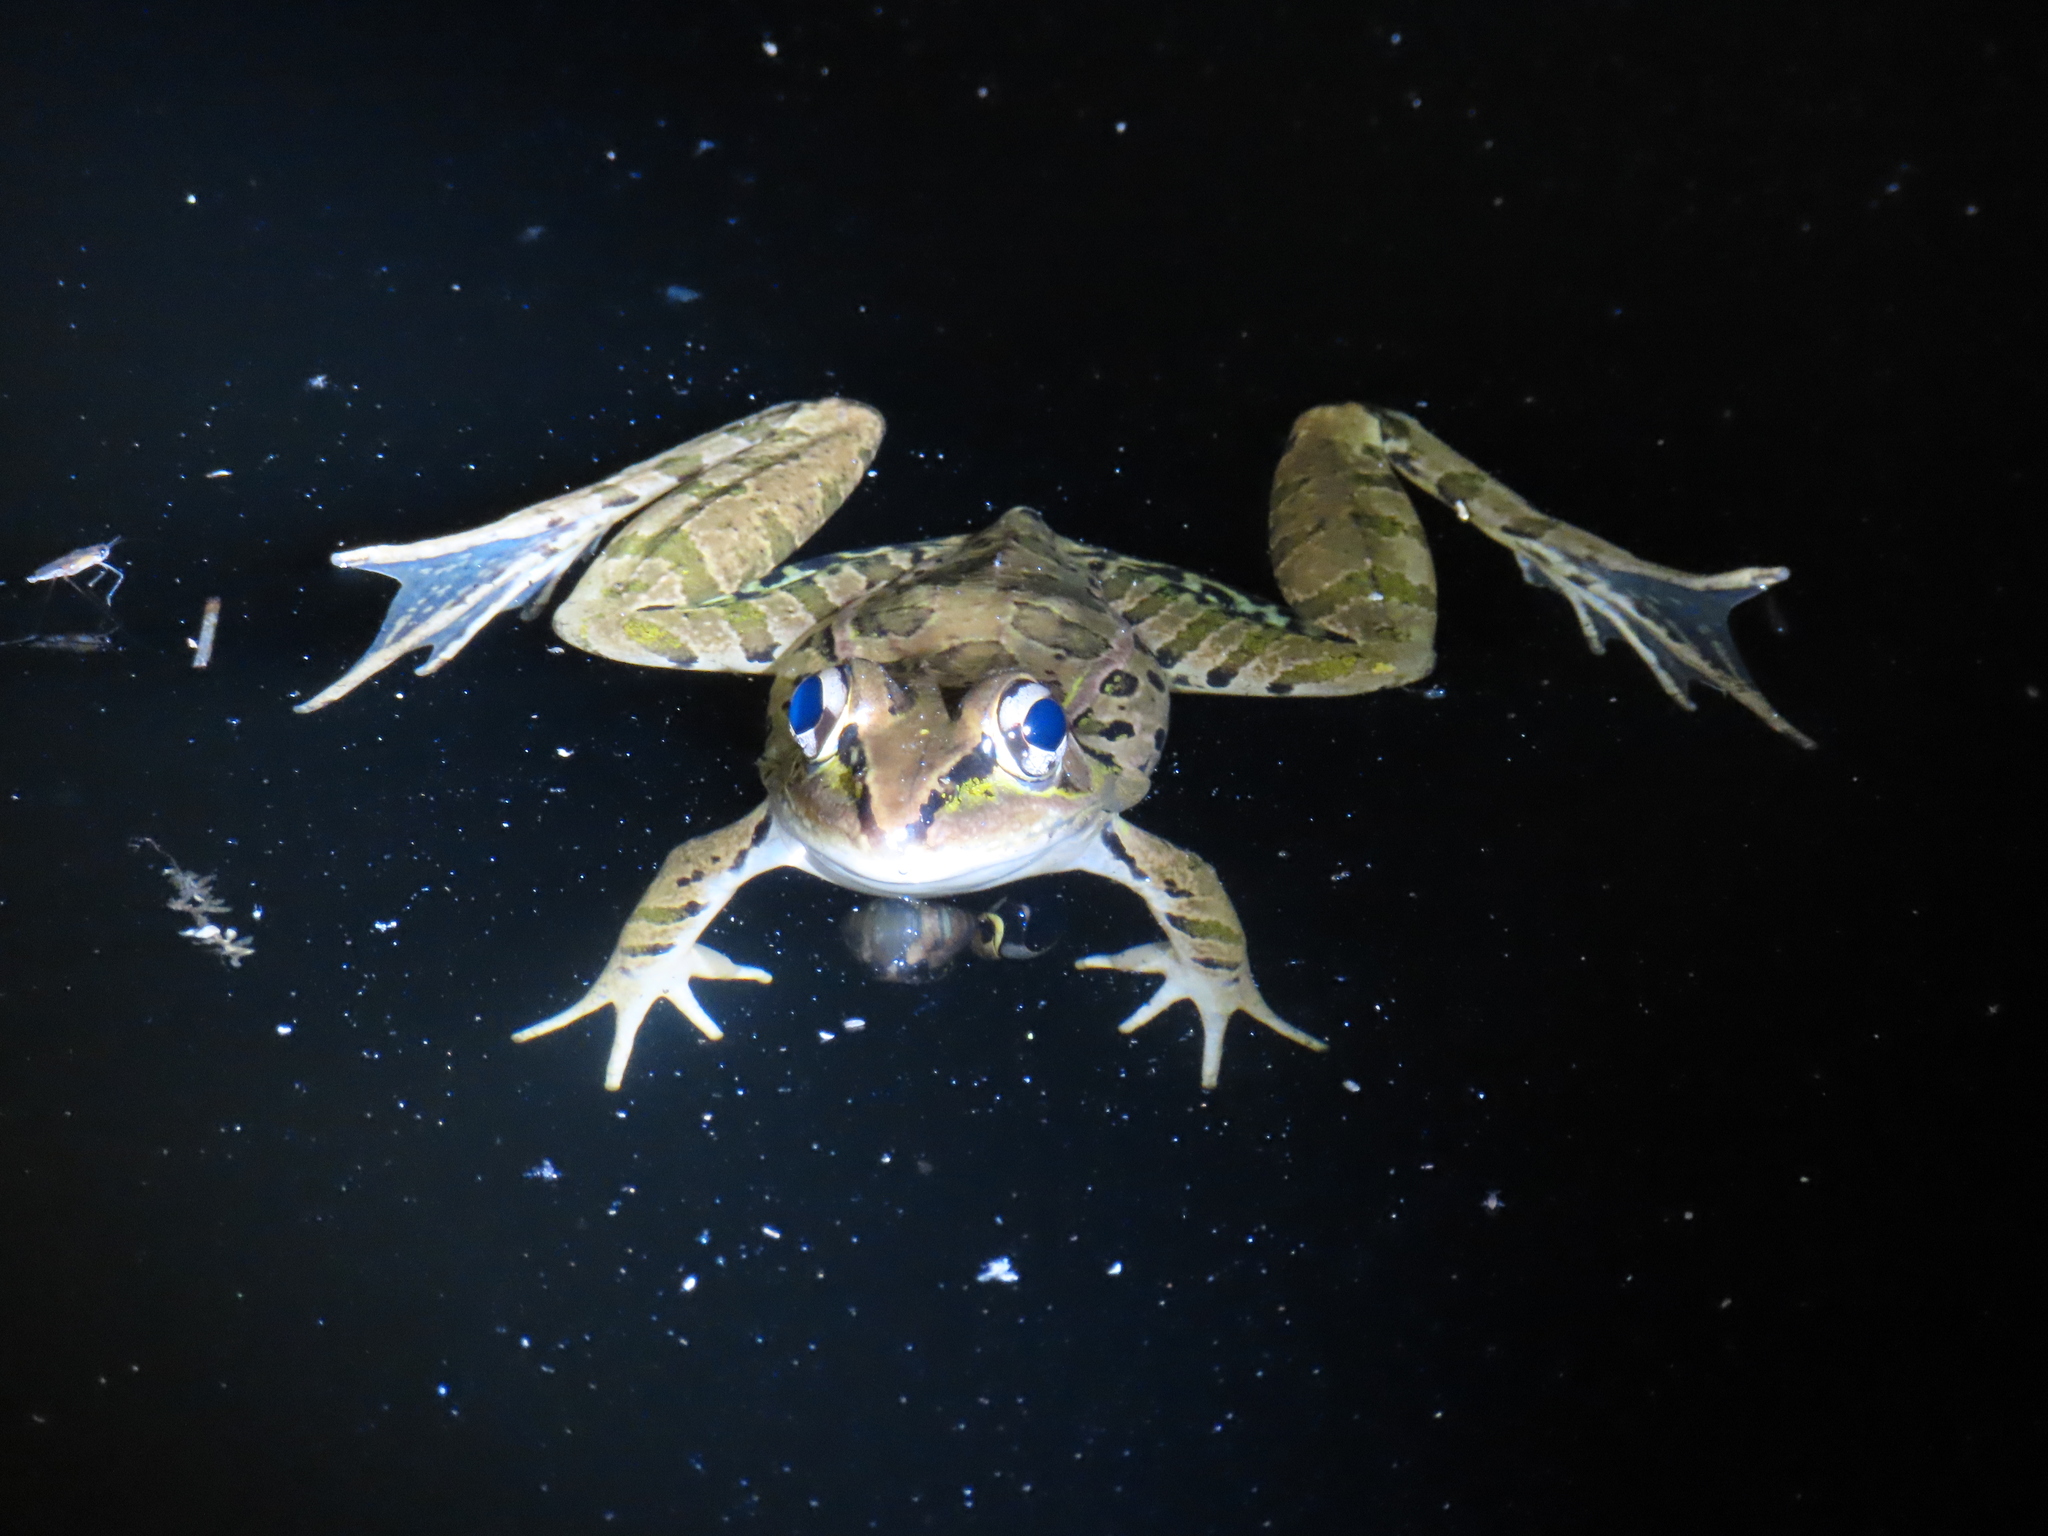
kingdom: Animalia
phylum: Chordata
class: Amphibia
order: Anura
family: Ranidae
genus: Lithobates
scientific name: Lithobates brownorum
